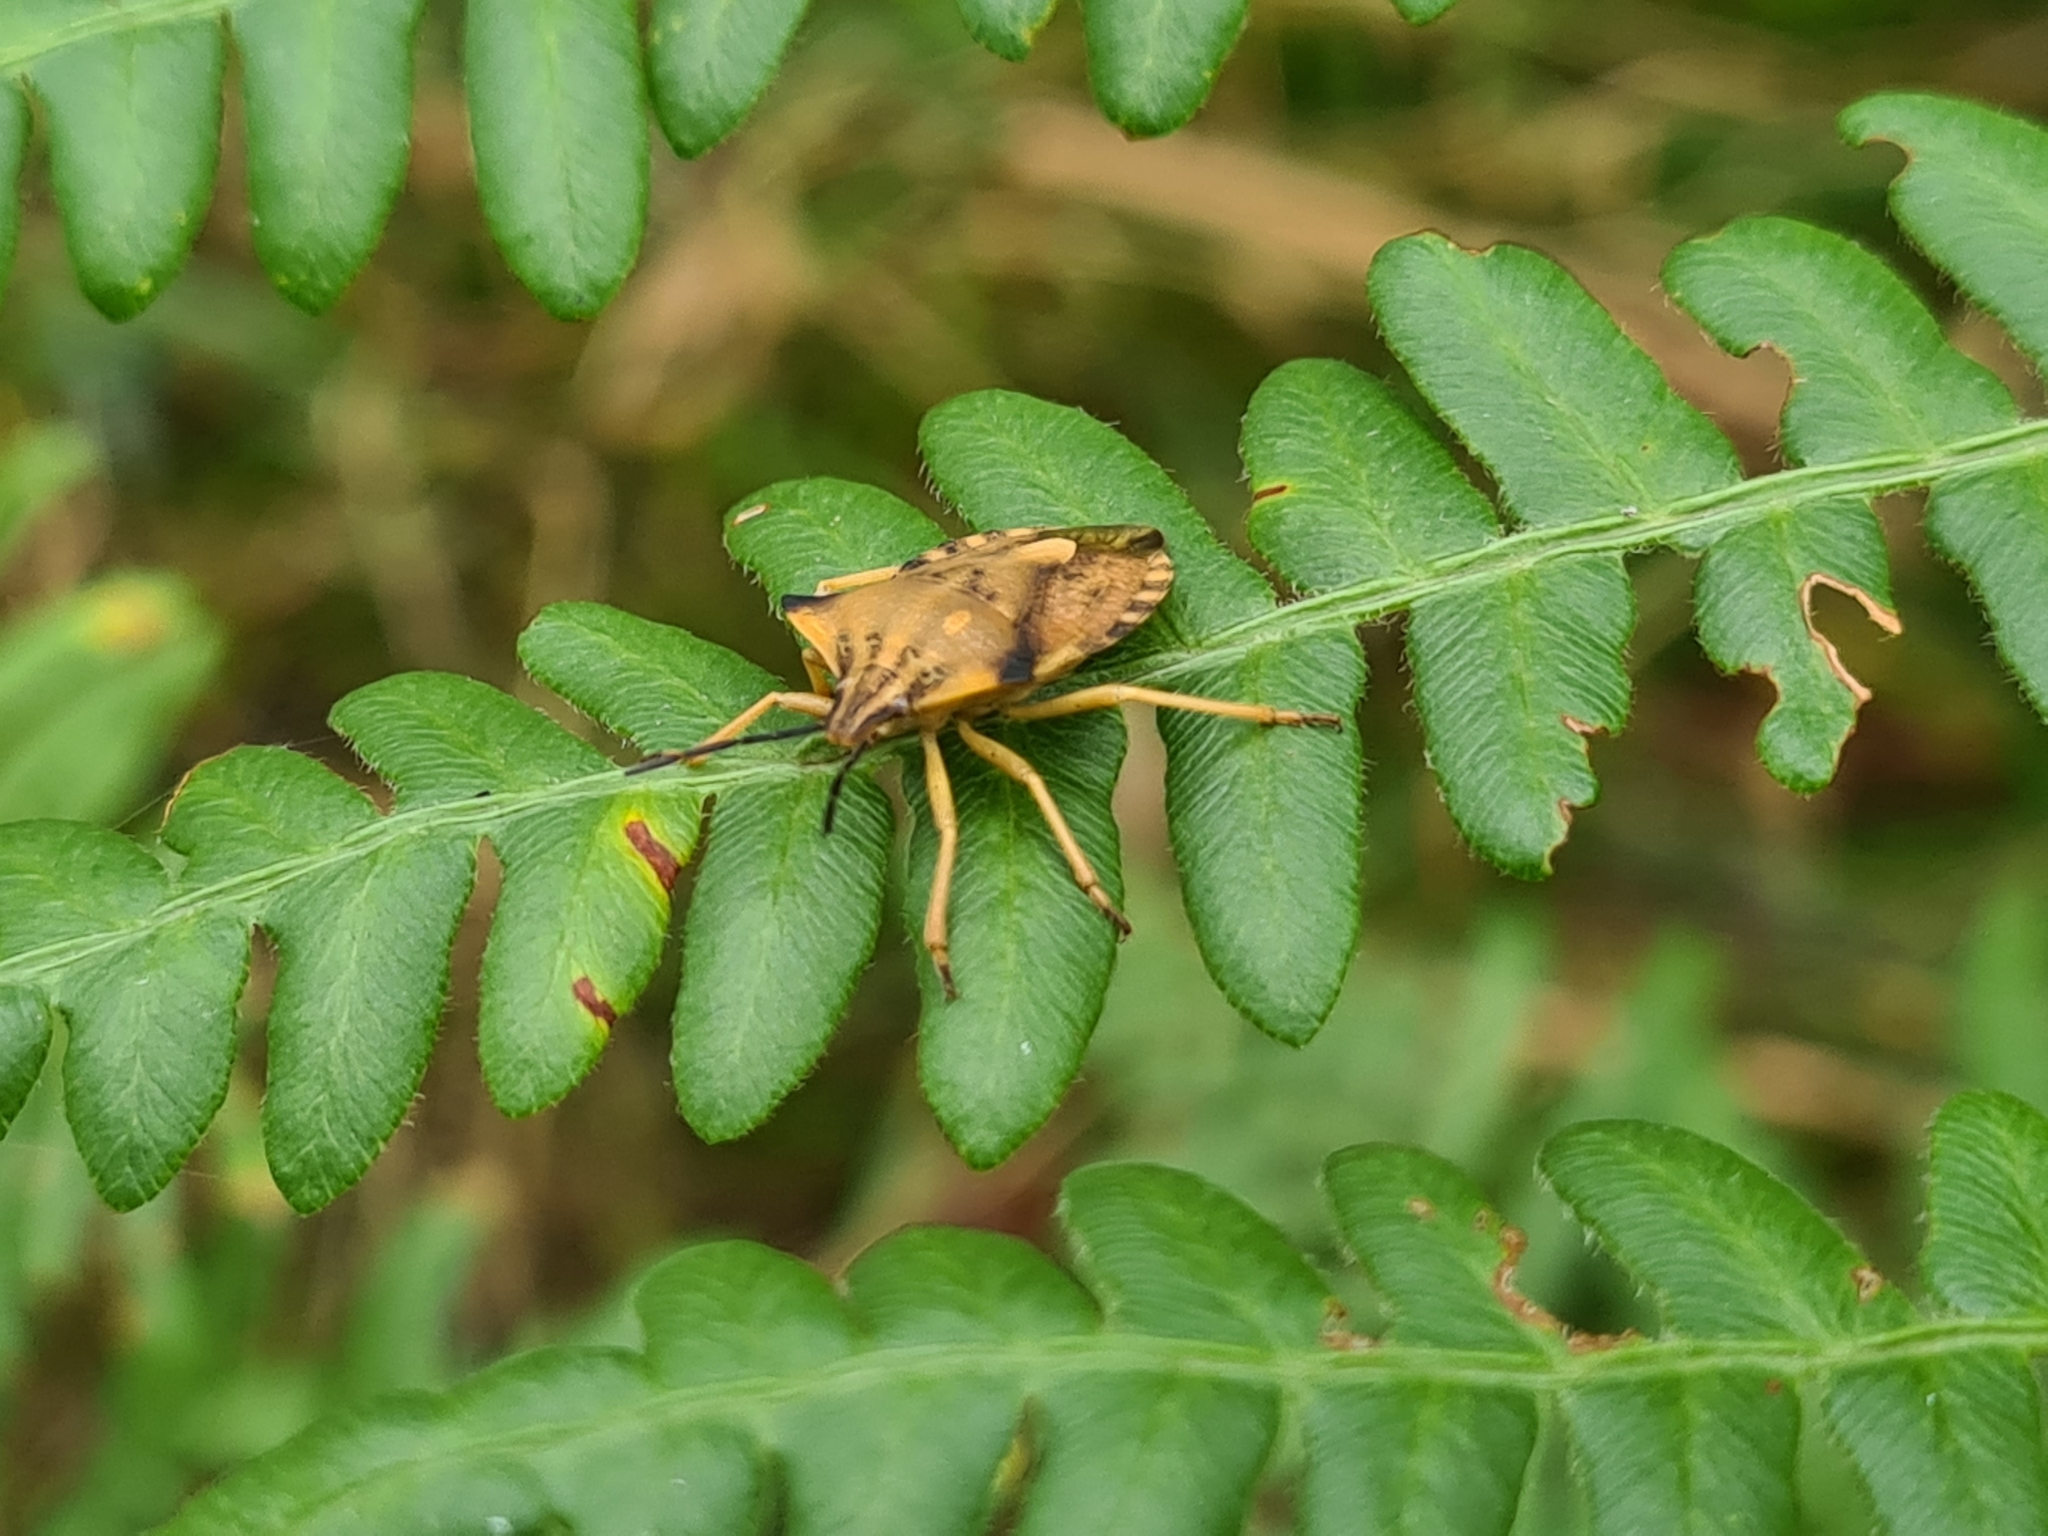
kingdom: Animalia
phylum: Arthropoda
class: Insecta
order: Hemiptera
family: Pentatomidae
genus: Carpocoris
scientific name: Carpocoris fuscispinus
